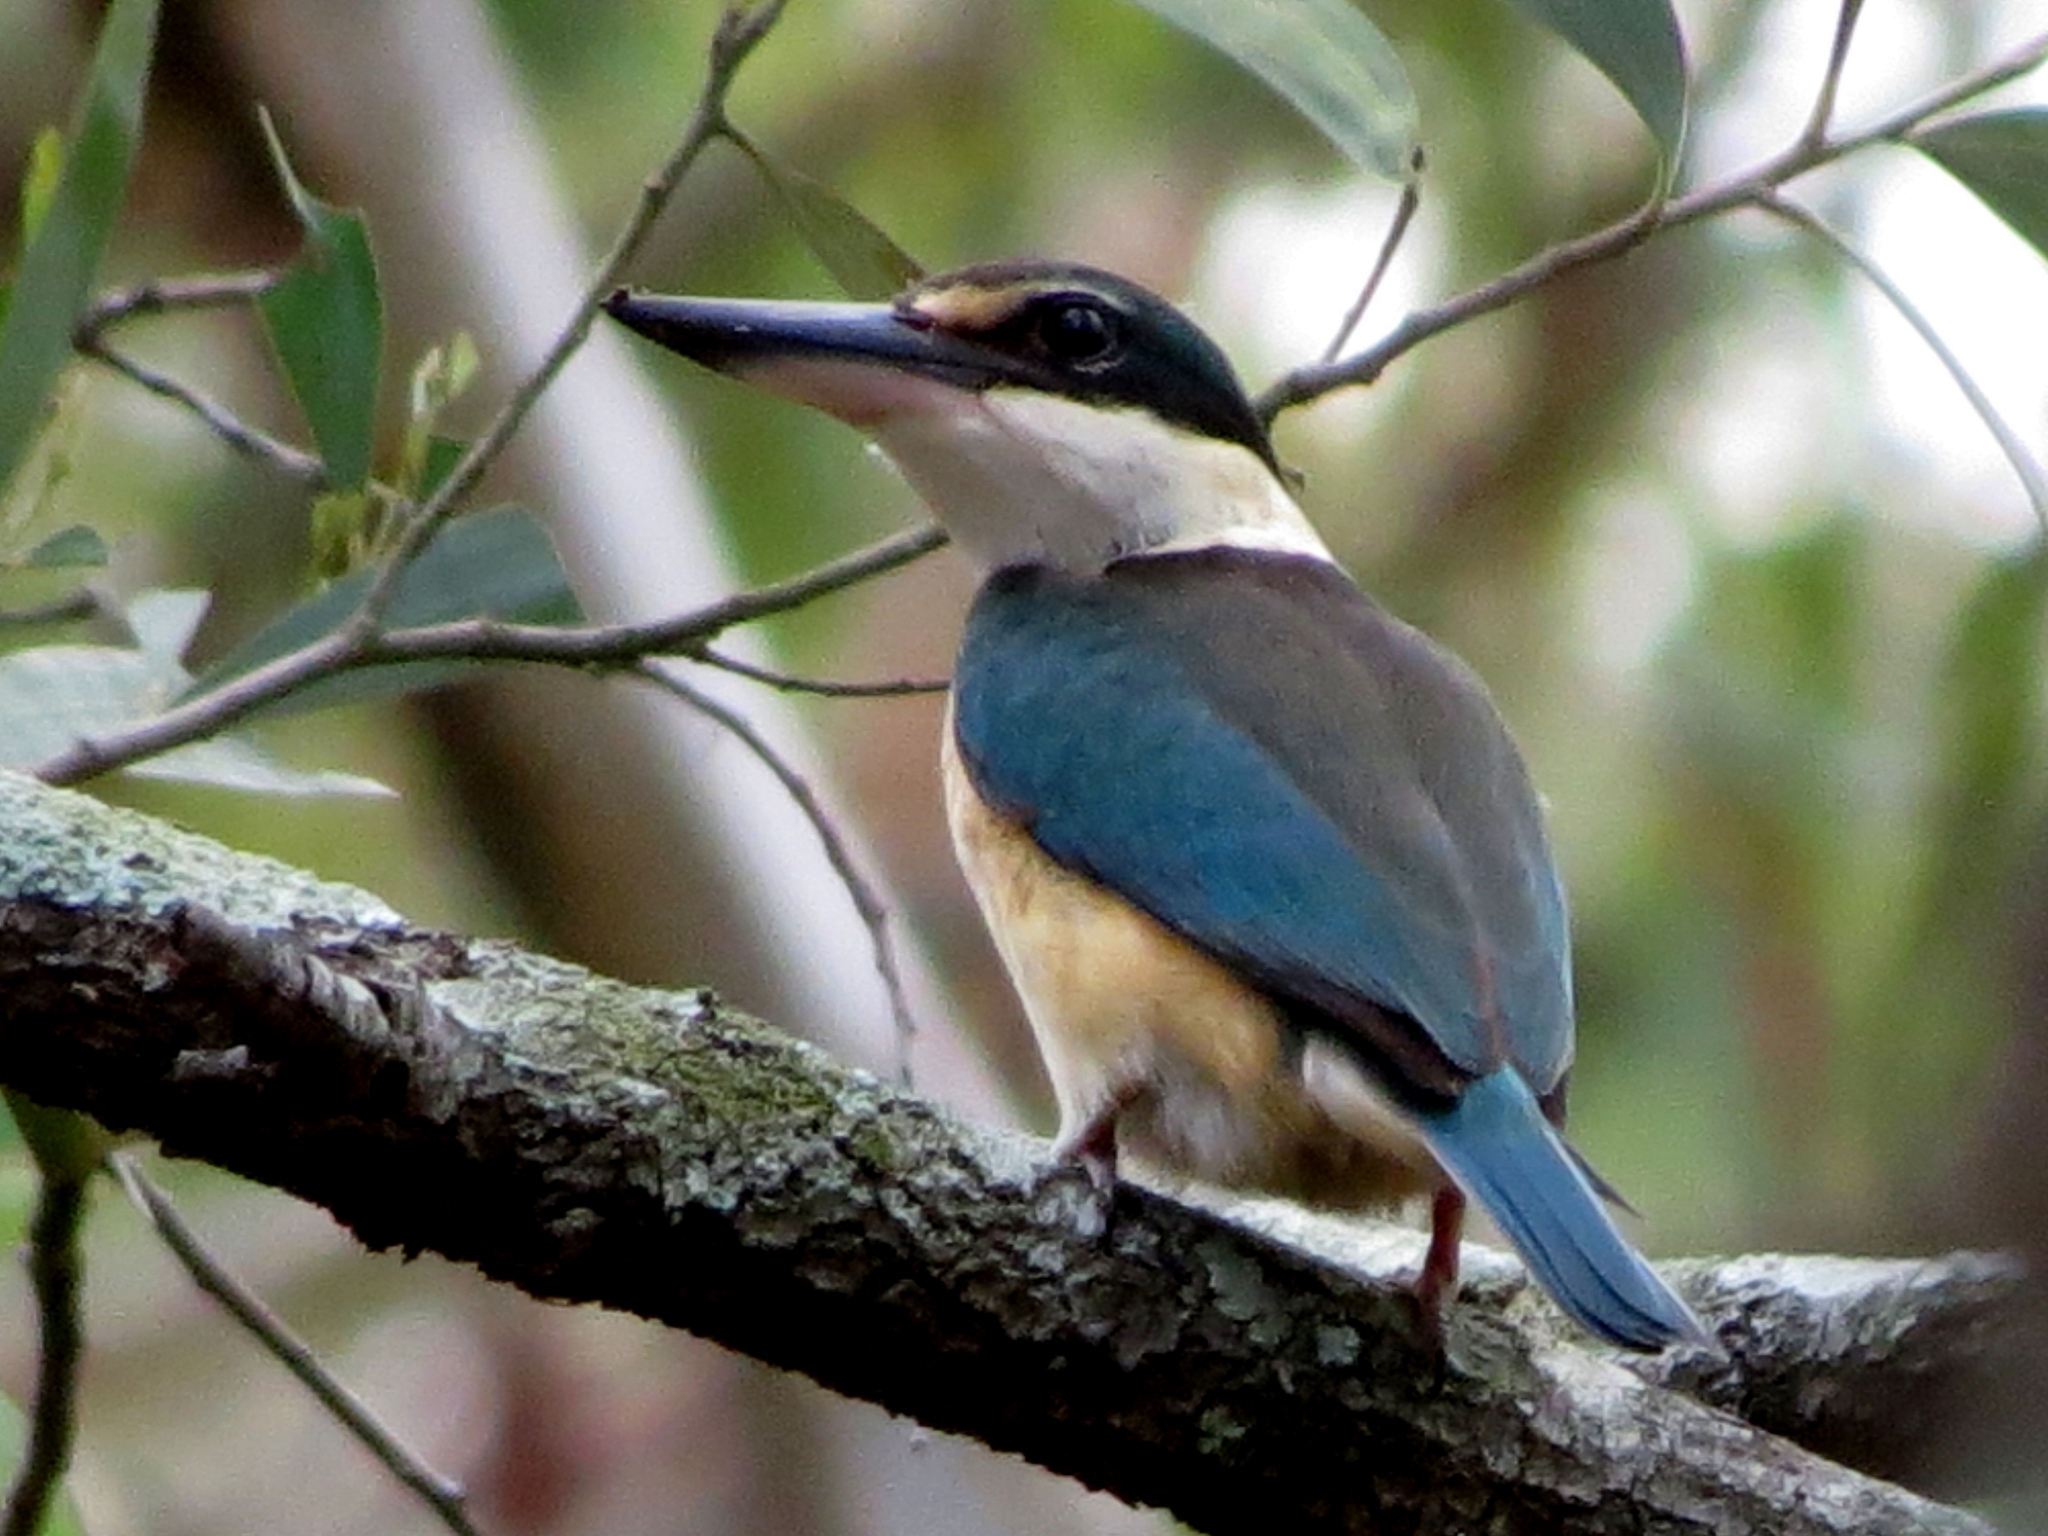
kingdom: Animalia
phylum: Chordata
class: Aves
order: Coraciiformes
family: Alcedinidae
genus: Todiramphus
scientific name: Todiramphus sanctus
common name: Sacred kingfisher
